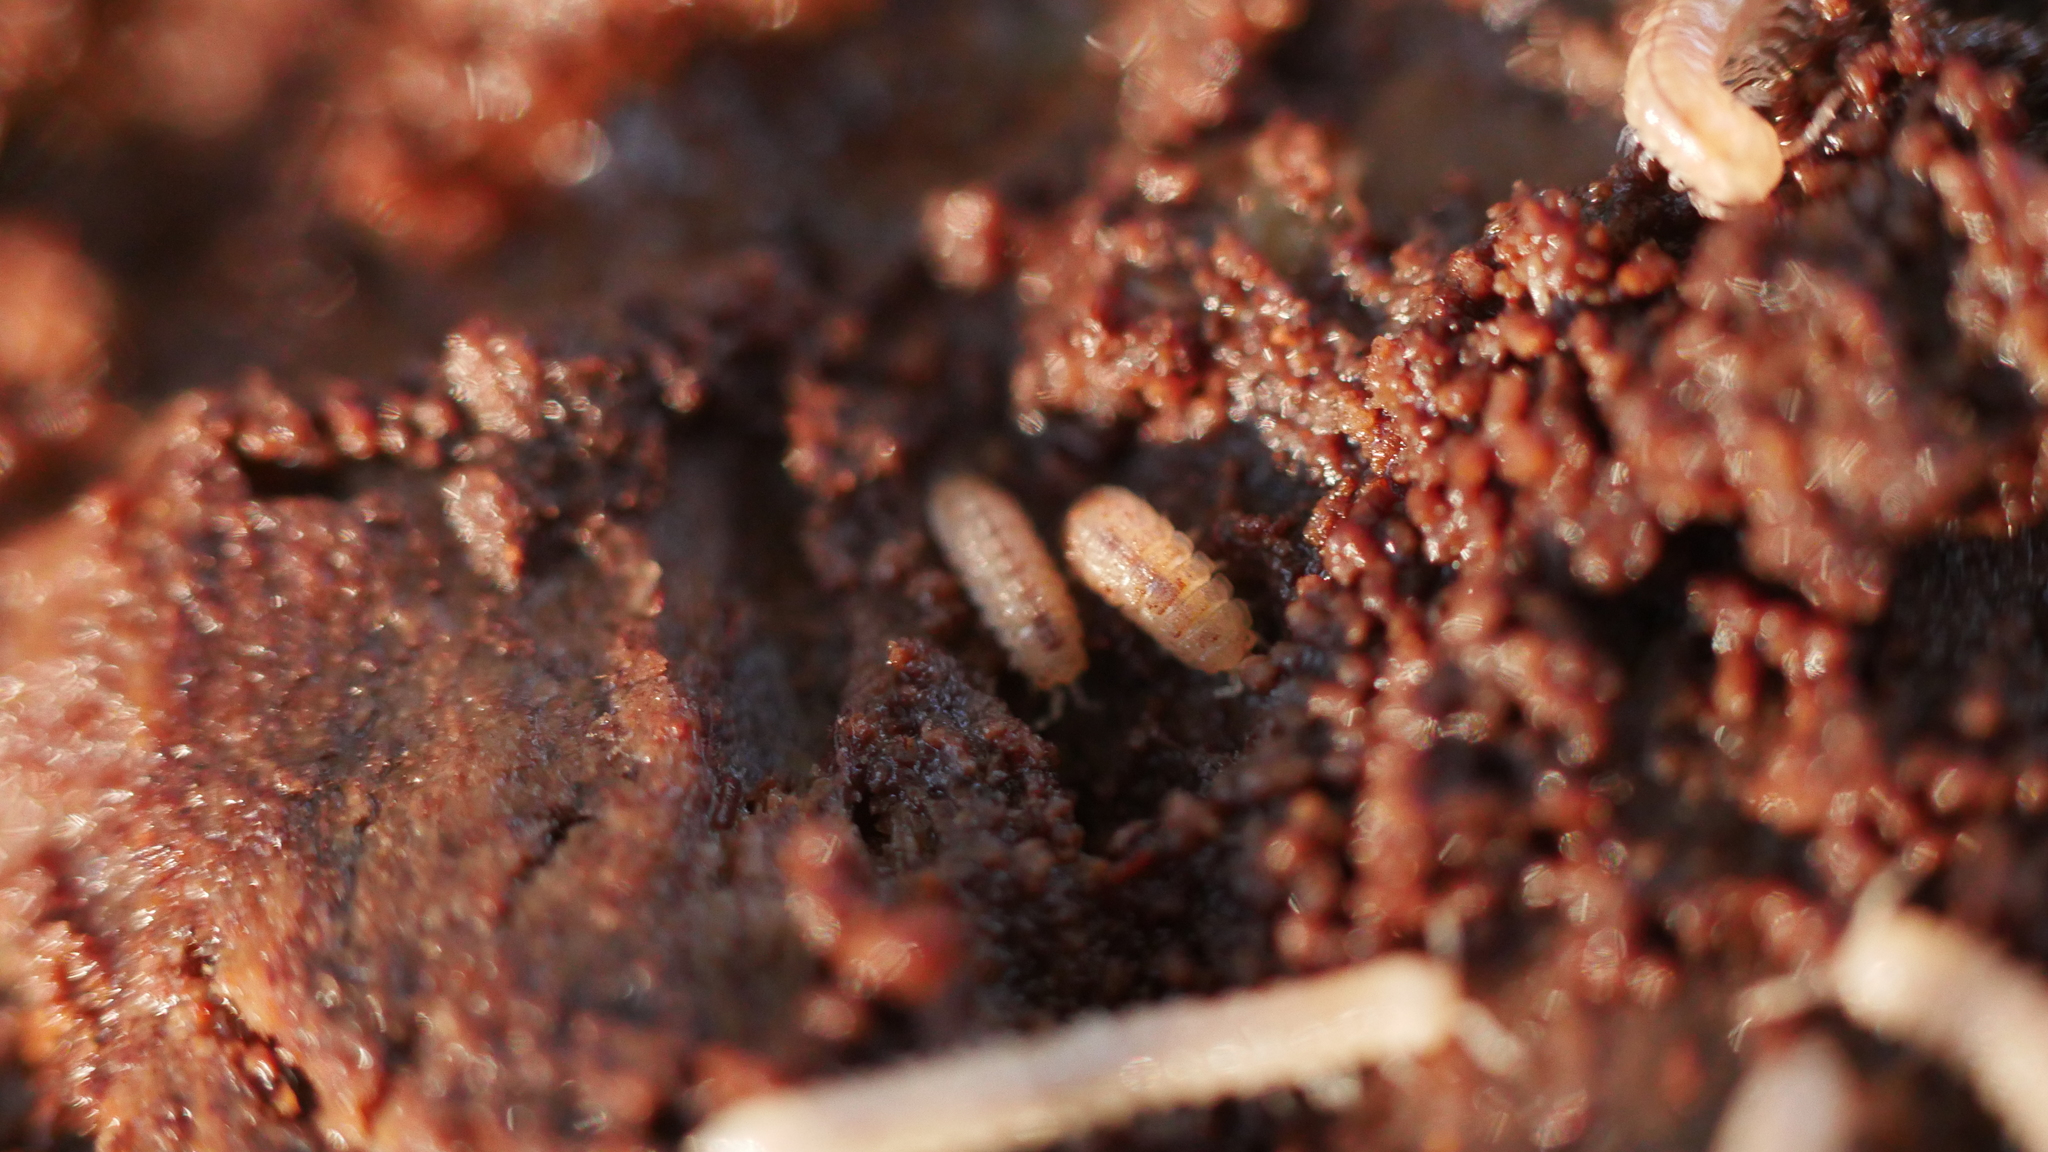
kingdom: Animalia
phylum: Arthropoda
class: Malacostraca
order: Isopoda
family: Trichoniscidae
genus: Haplophthalmus
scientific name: Haplophthalmus danicus
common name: Pillbug
